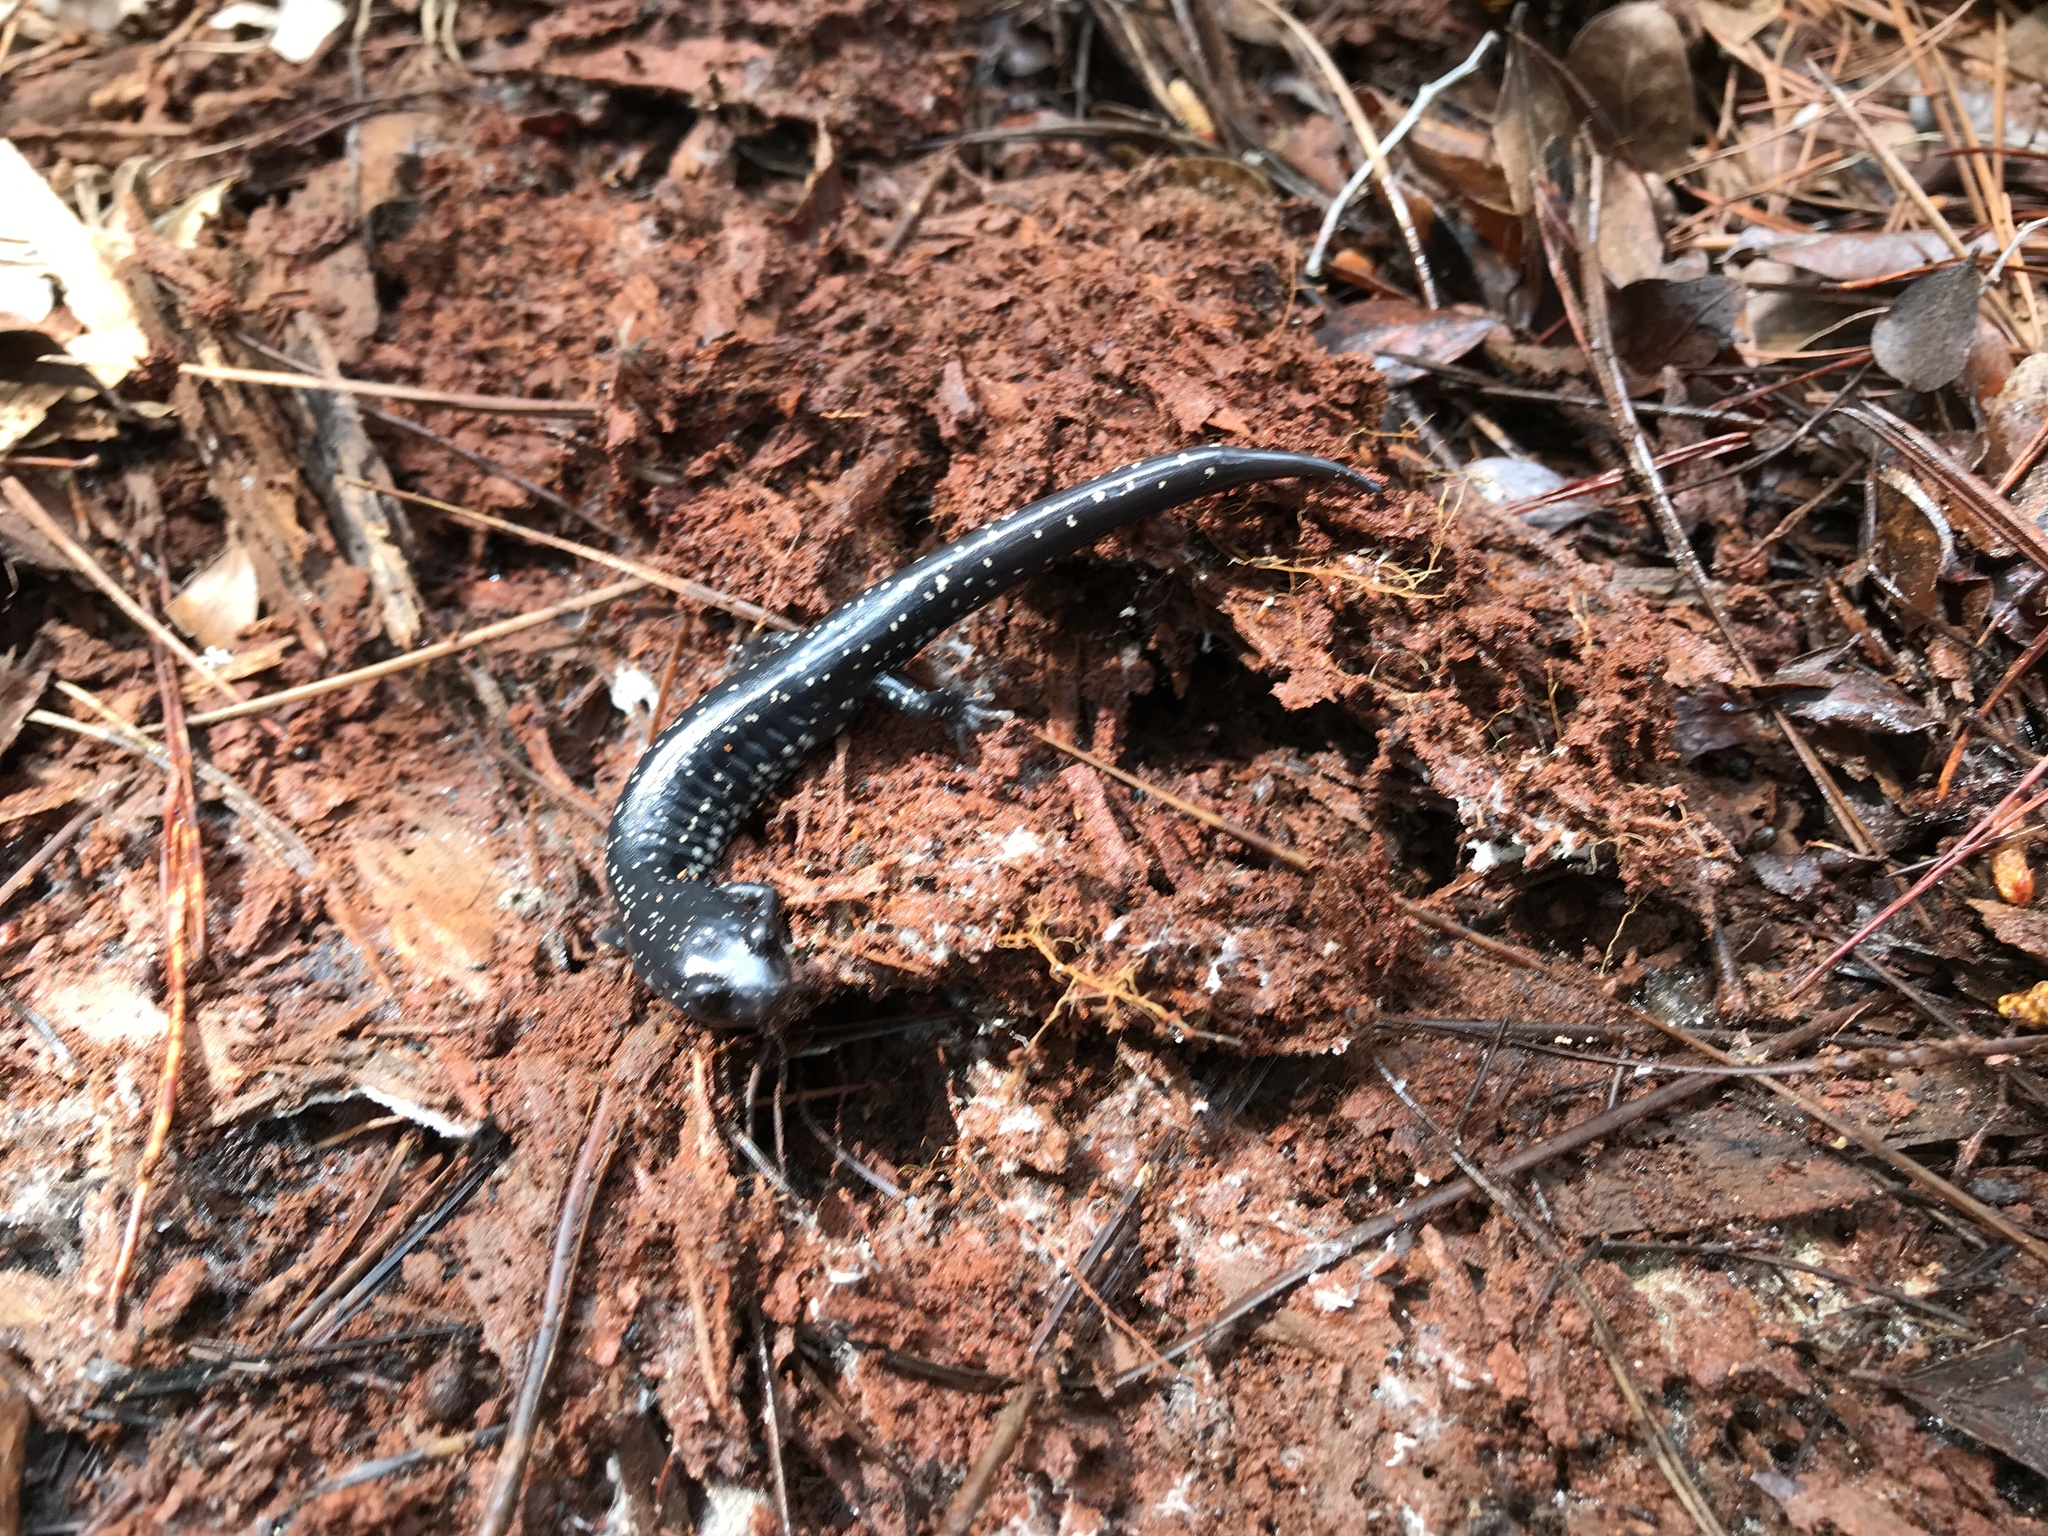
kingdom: Animalia
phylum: Chordata
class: Amphibia
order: Caudata
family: Plethodontidae
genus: Plethodon
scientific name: Plethodon grobmani
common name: Southeastern slimy salamander
